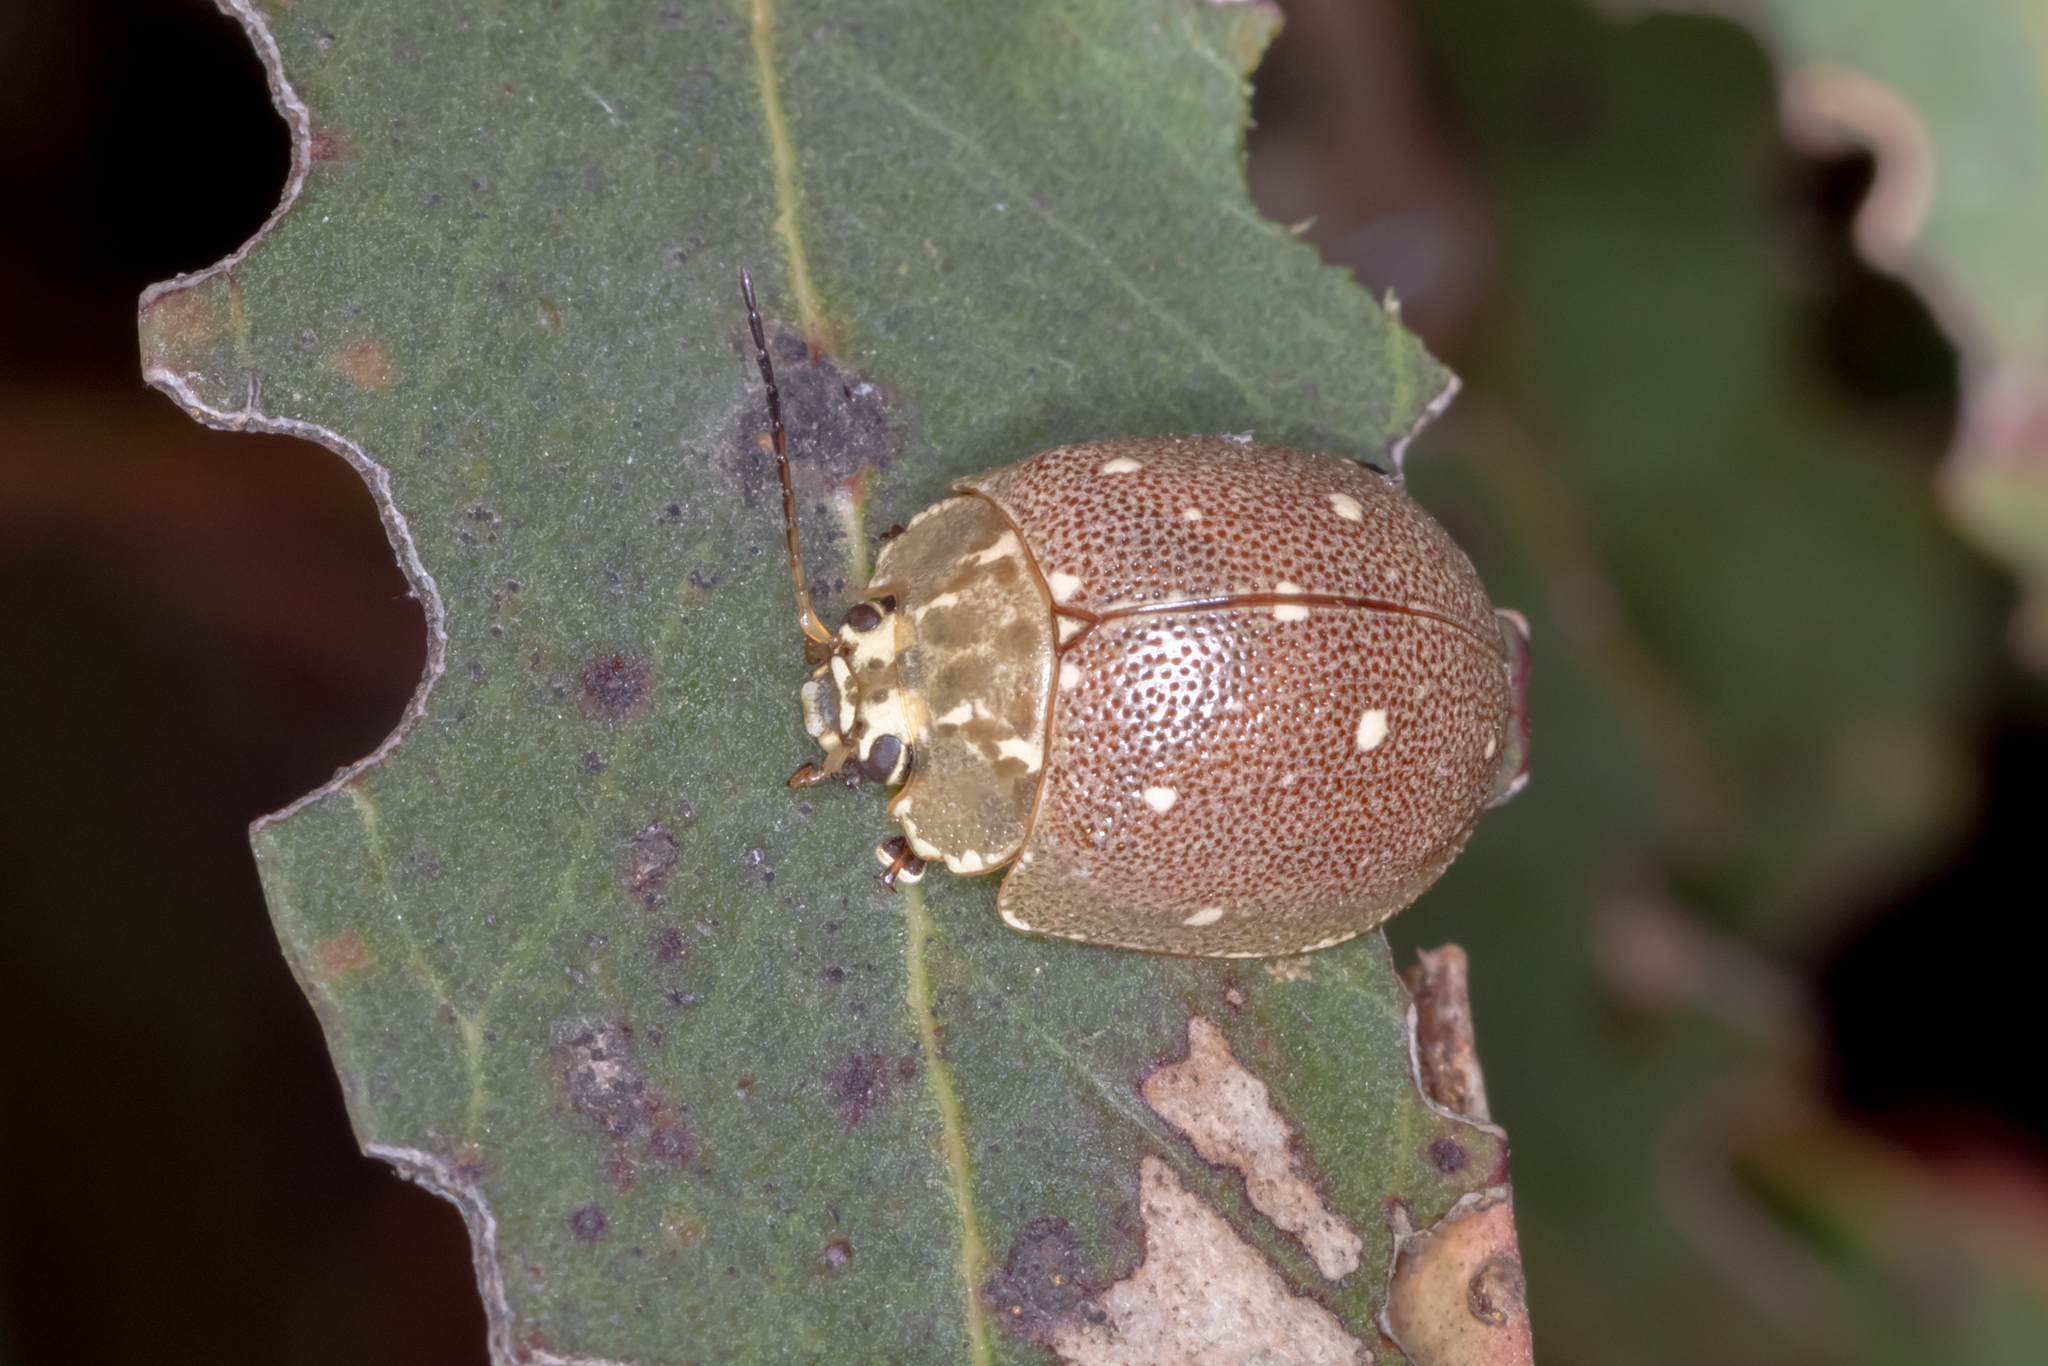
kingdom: Animalia
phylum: Arthropoda
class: Insecta
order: Coleoptera
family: Chrysomelidae
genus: Paropsis
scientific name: Paropsis aegrota
